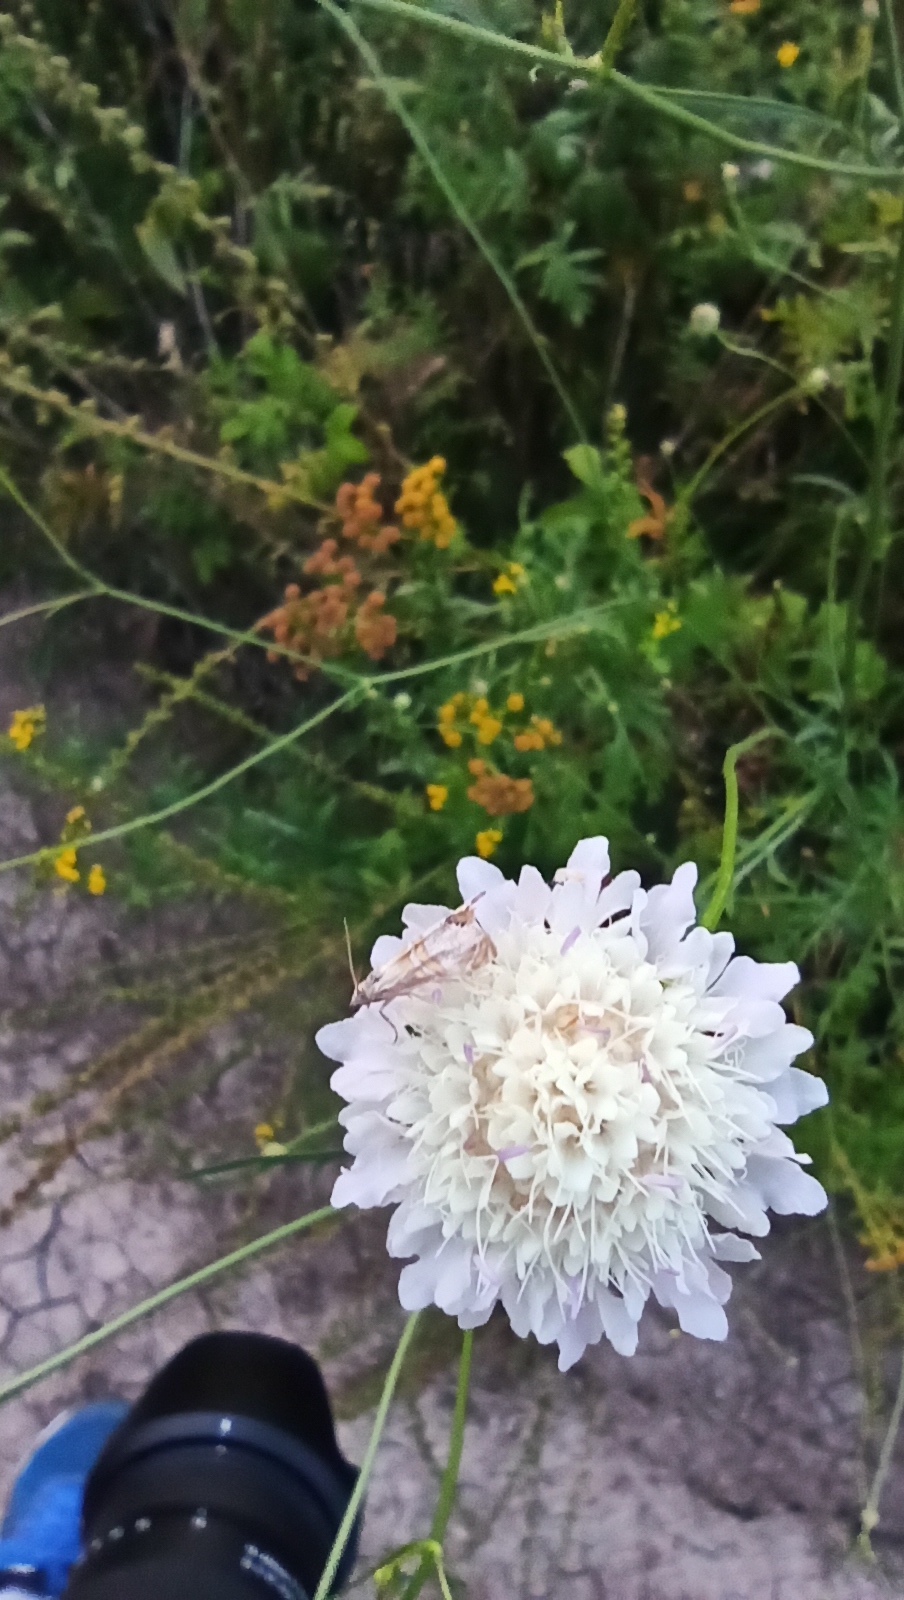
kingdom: Animalia
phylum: Arthropoda
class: Insecta
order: Lepidoptera
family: Crambidae
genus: Euchromius
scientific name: Euchromius bella
